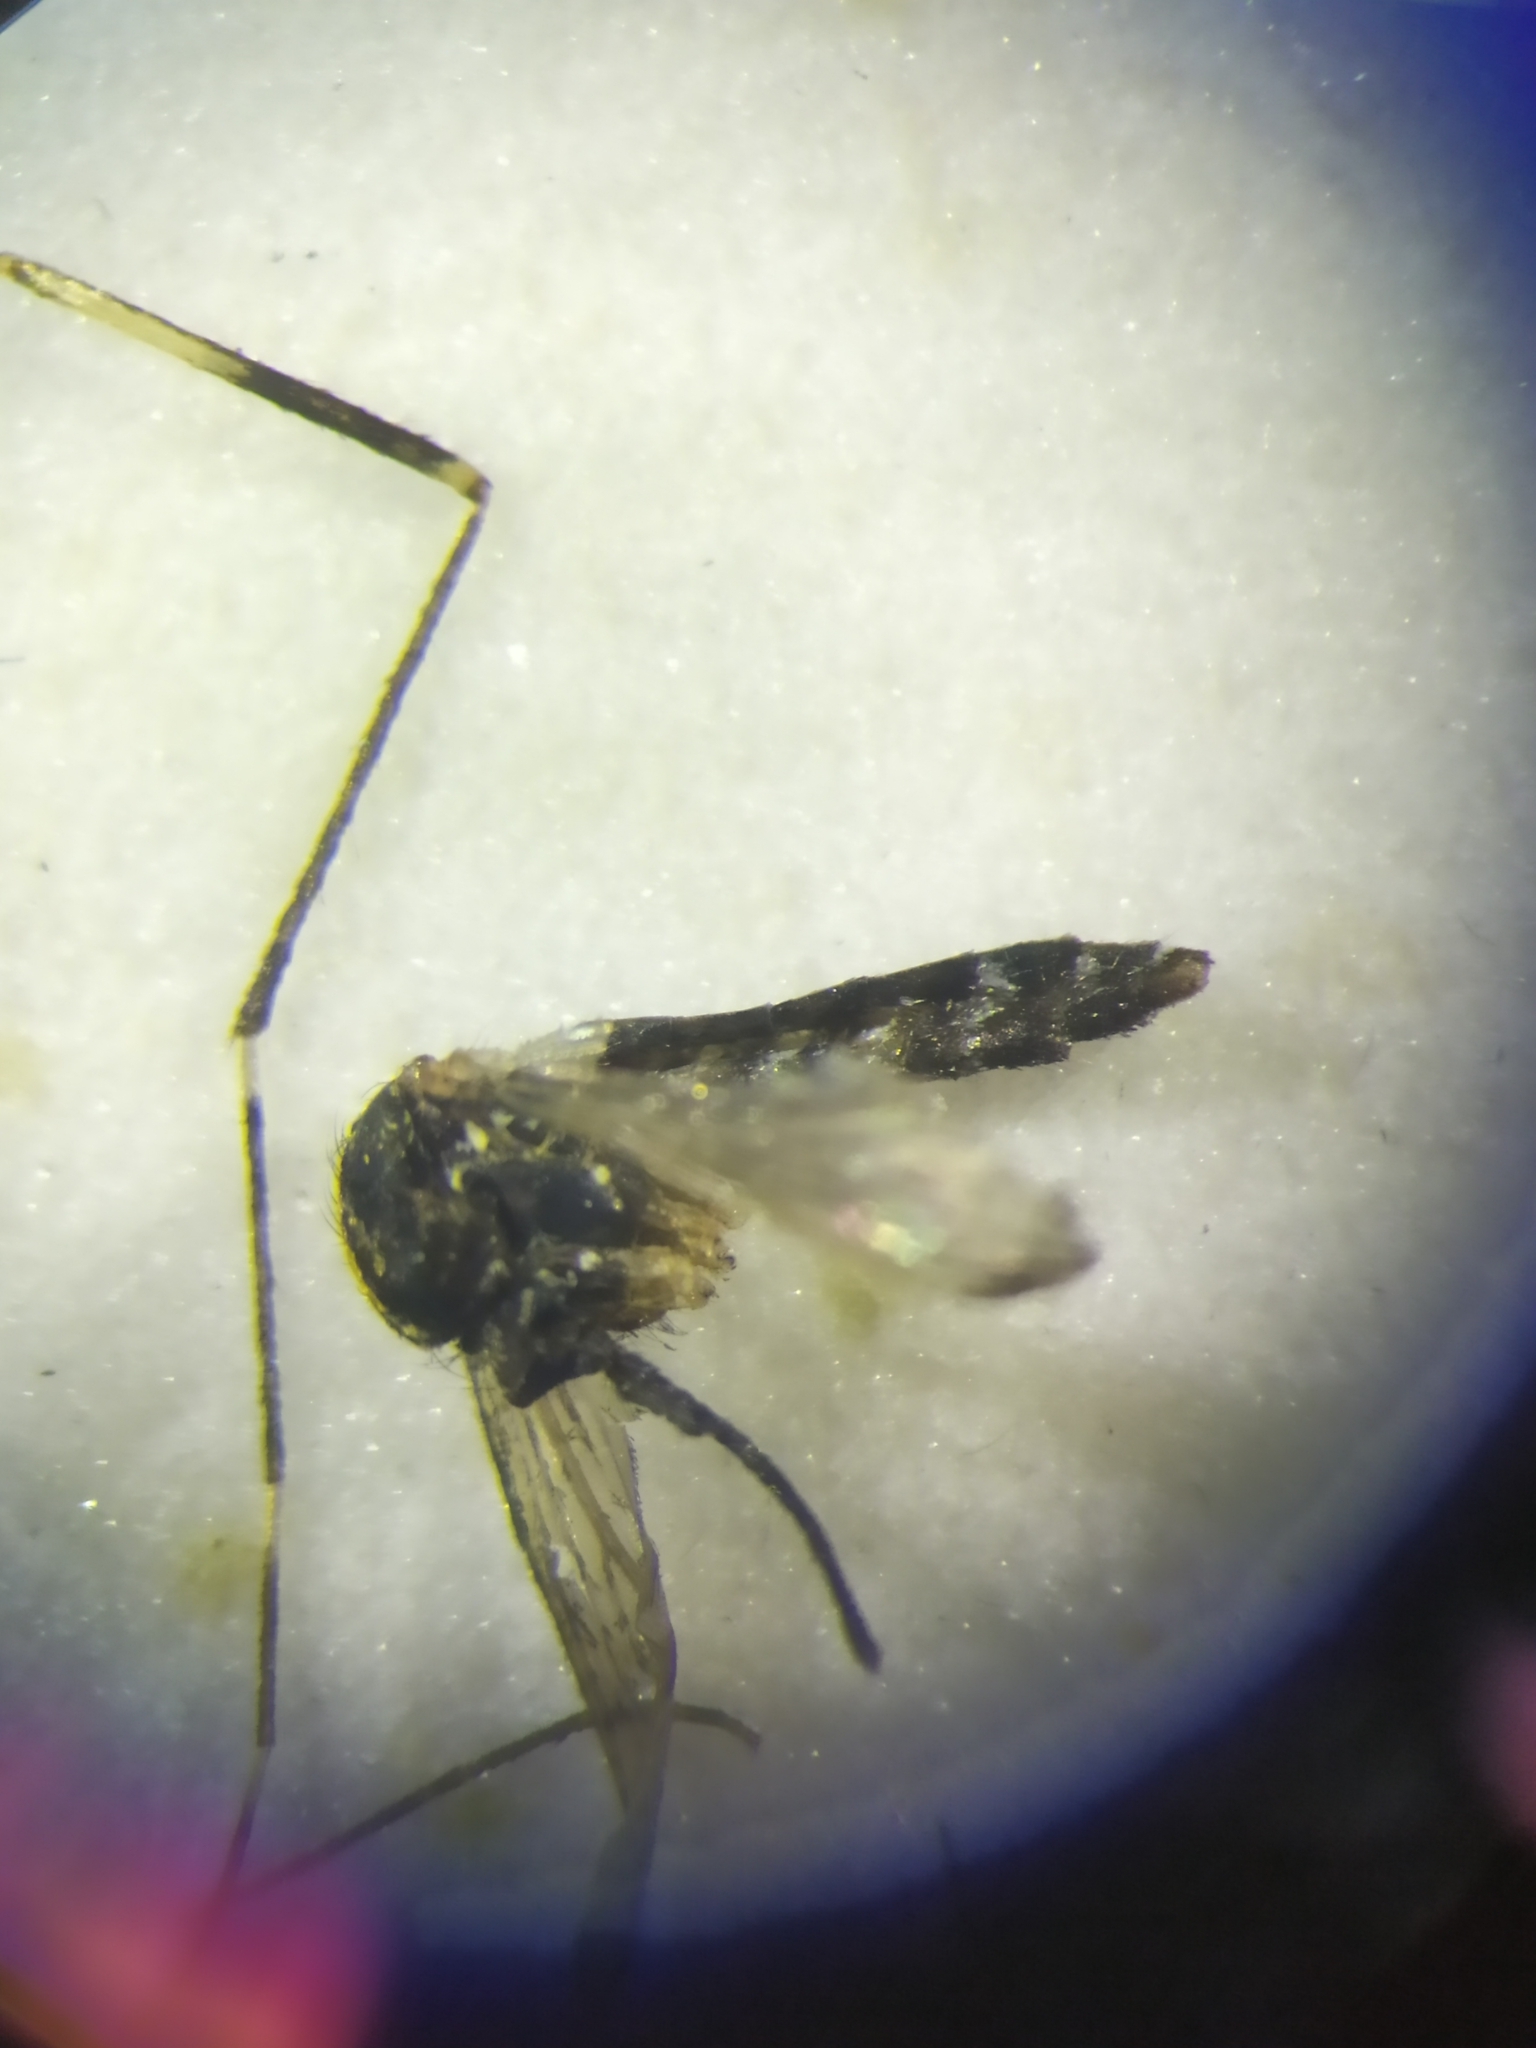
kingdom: Animalia
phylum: Arthropoda
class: Insecta
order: Diptera
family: Culicidae
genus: Aedes
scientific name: Aedes japonicus
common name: Asian bush mosquito
